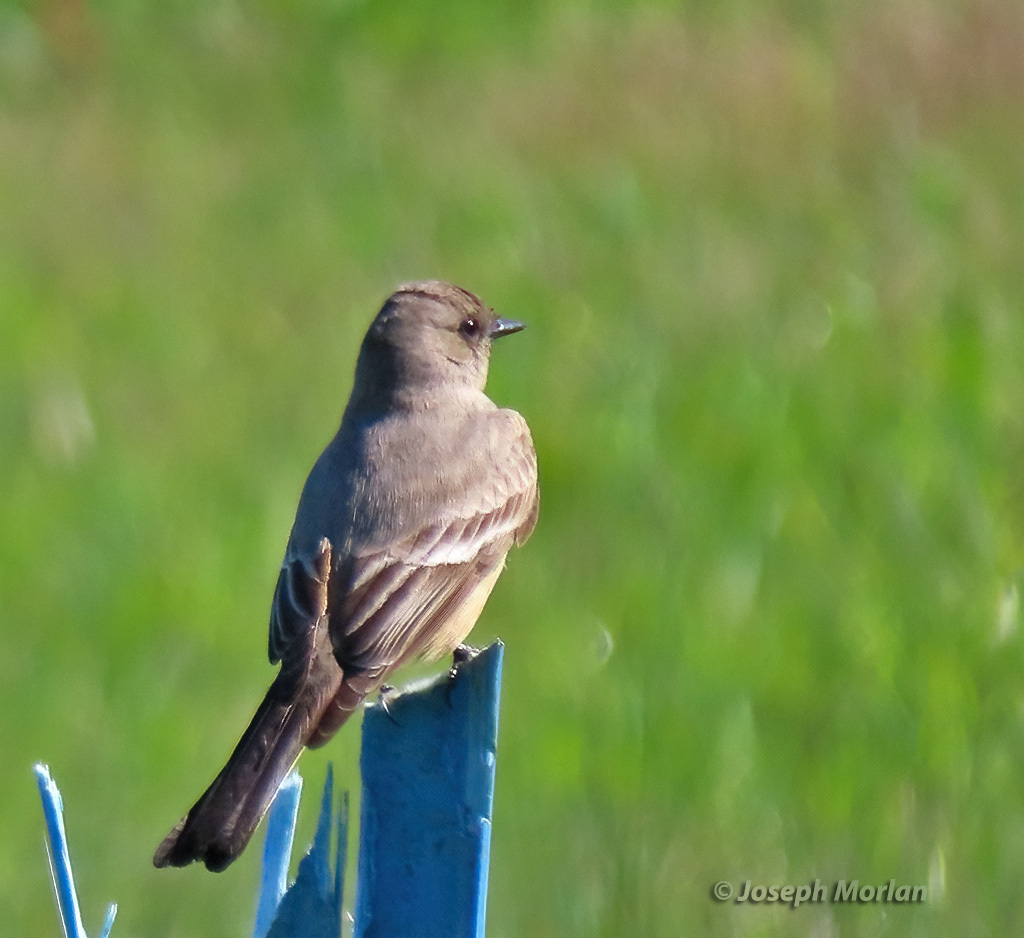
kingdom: Animalia
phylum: Chordata
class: Aves
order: Passeriformes
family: Tyrannidae
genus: Sayornis
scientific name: Sayornis saya
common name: Say's phoebe
